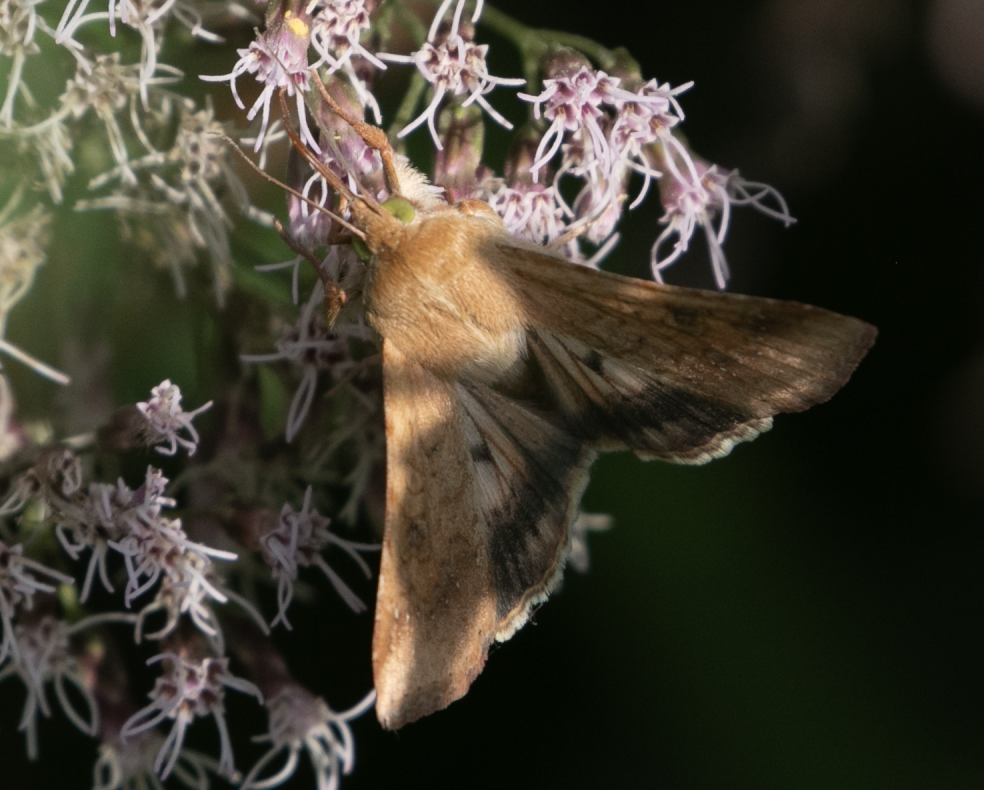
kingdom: Animalia
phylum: Arthropoda
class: Insecta
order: Lepidoptera
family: Noctuidae
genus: Helicoverpa
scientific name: Helicoverpa armigera
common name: Cotton bollworm
